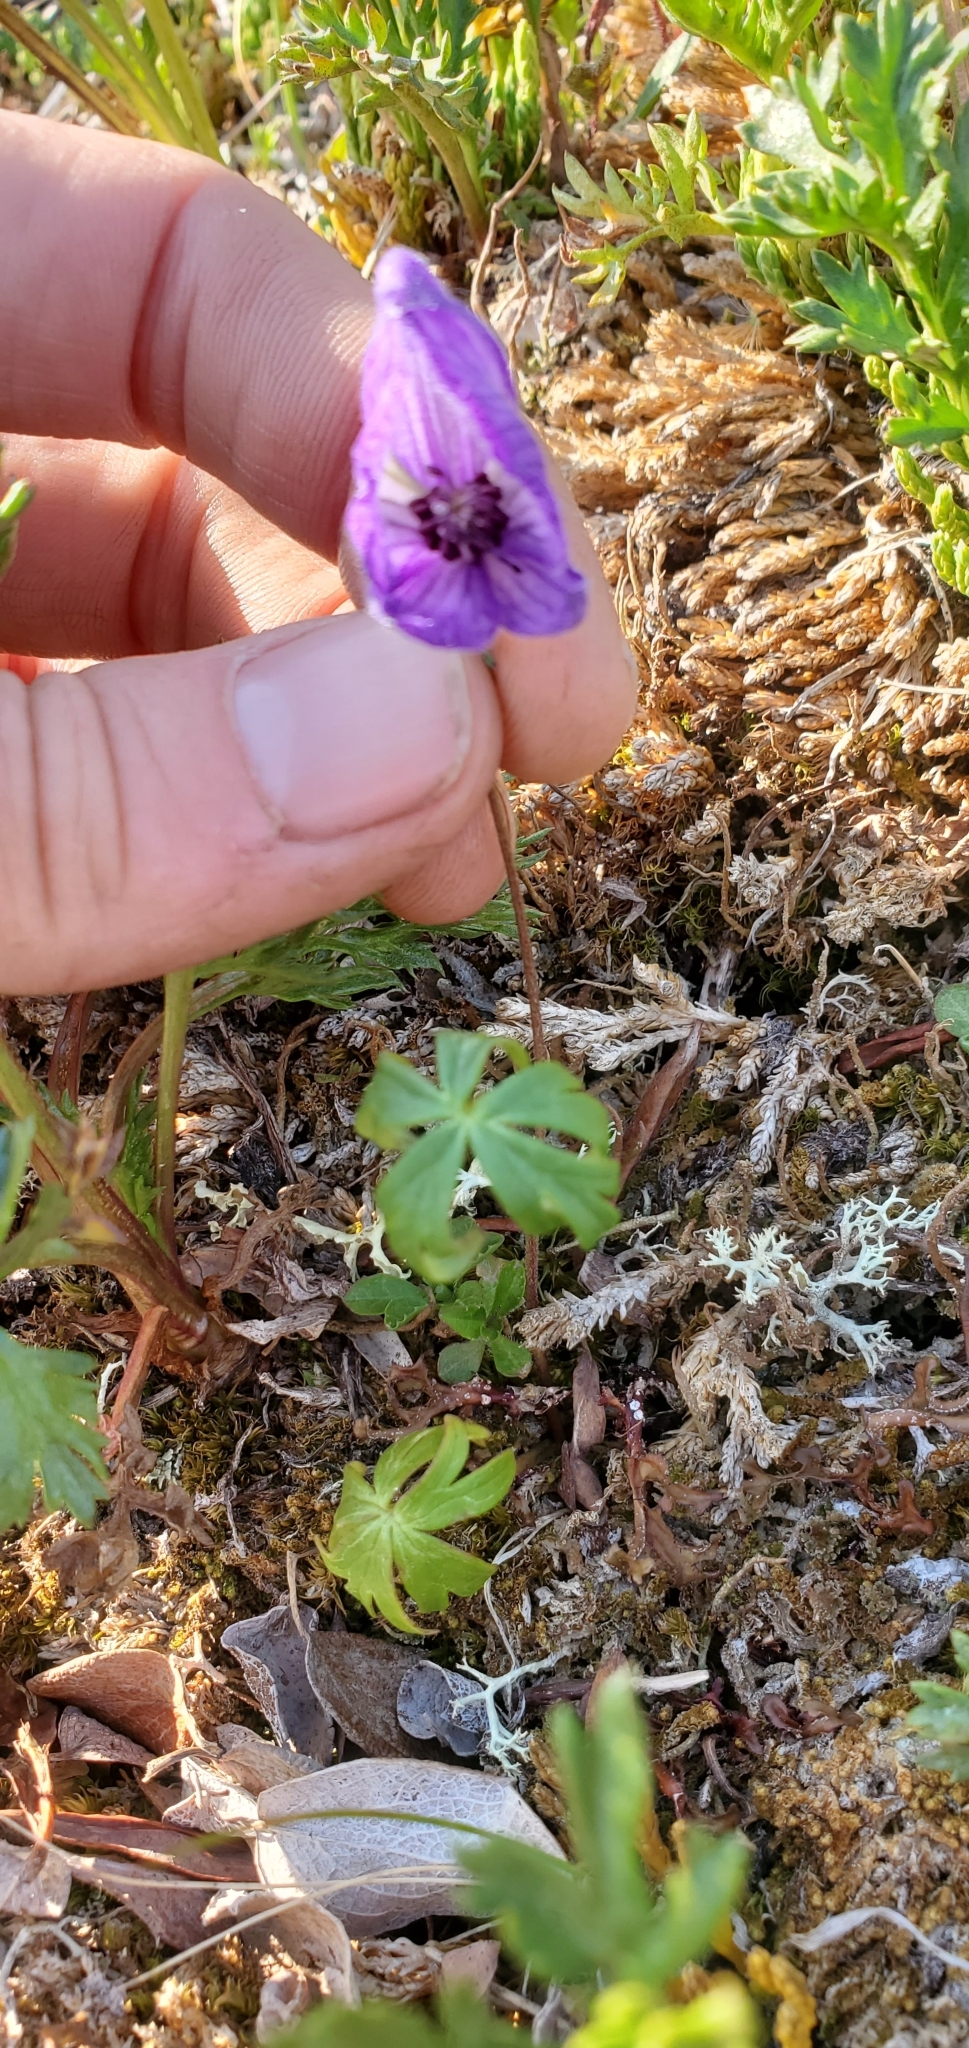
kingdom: Plantae
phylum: Tracheophyta
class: Magnoliopsida
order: Ranunculales
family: Ranunculaceae
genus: Aconitum
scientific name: Aconitum delphiniifolium
